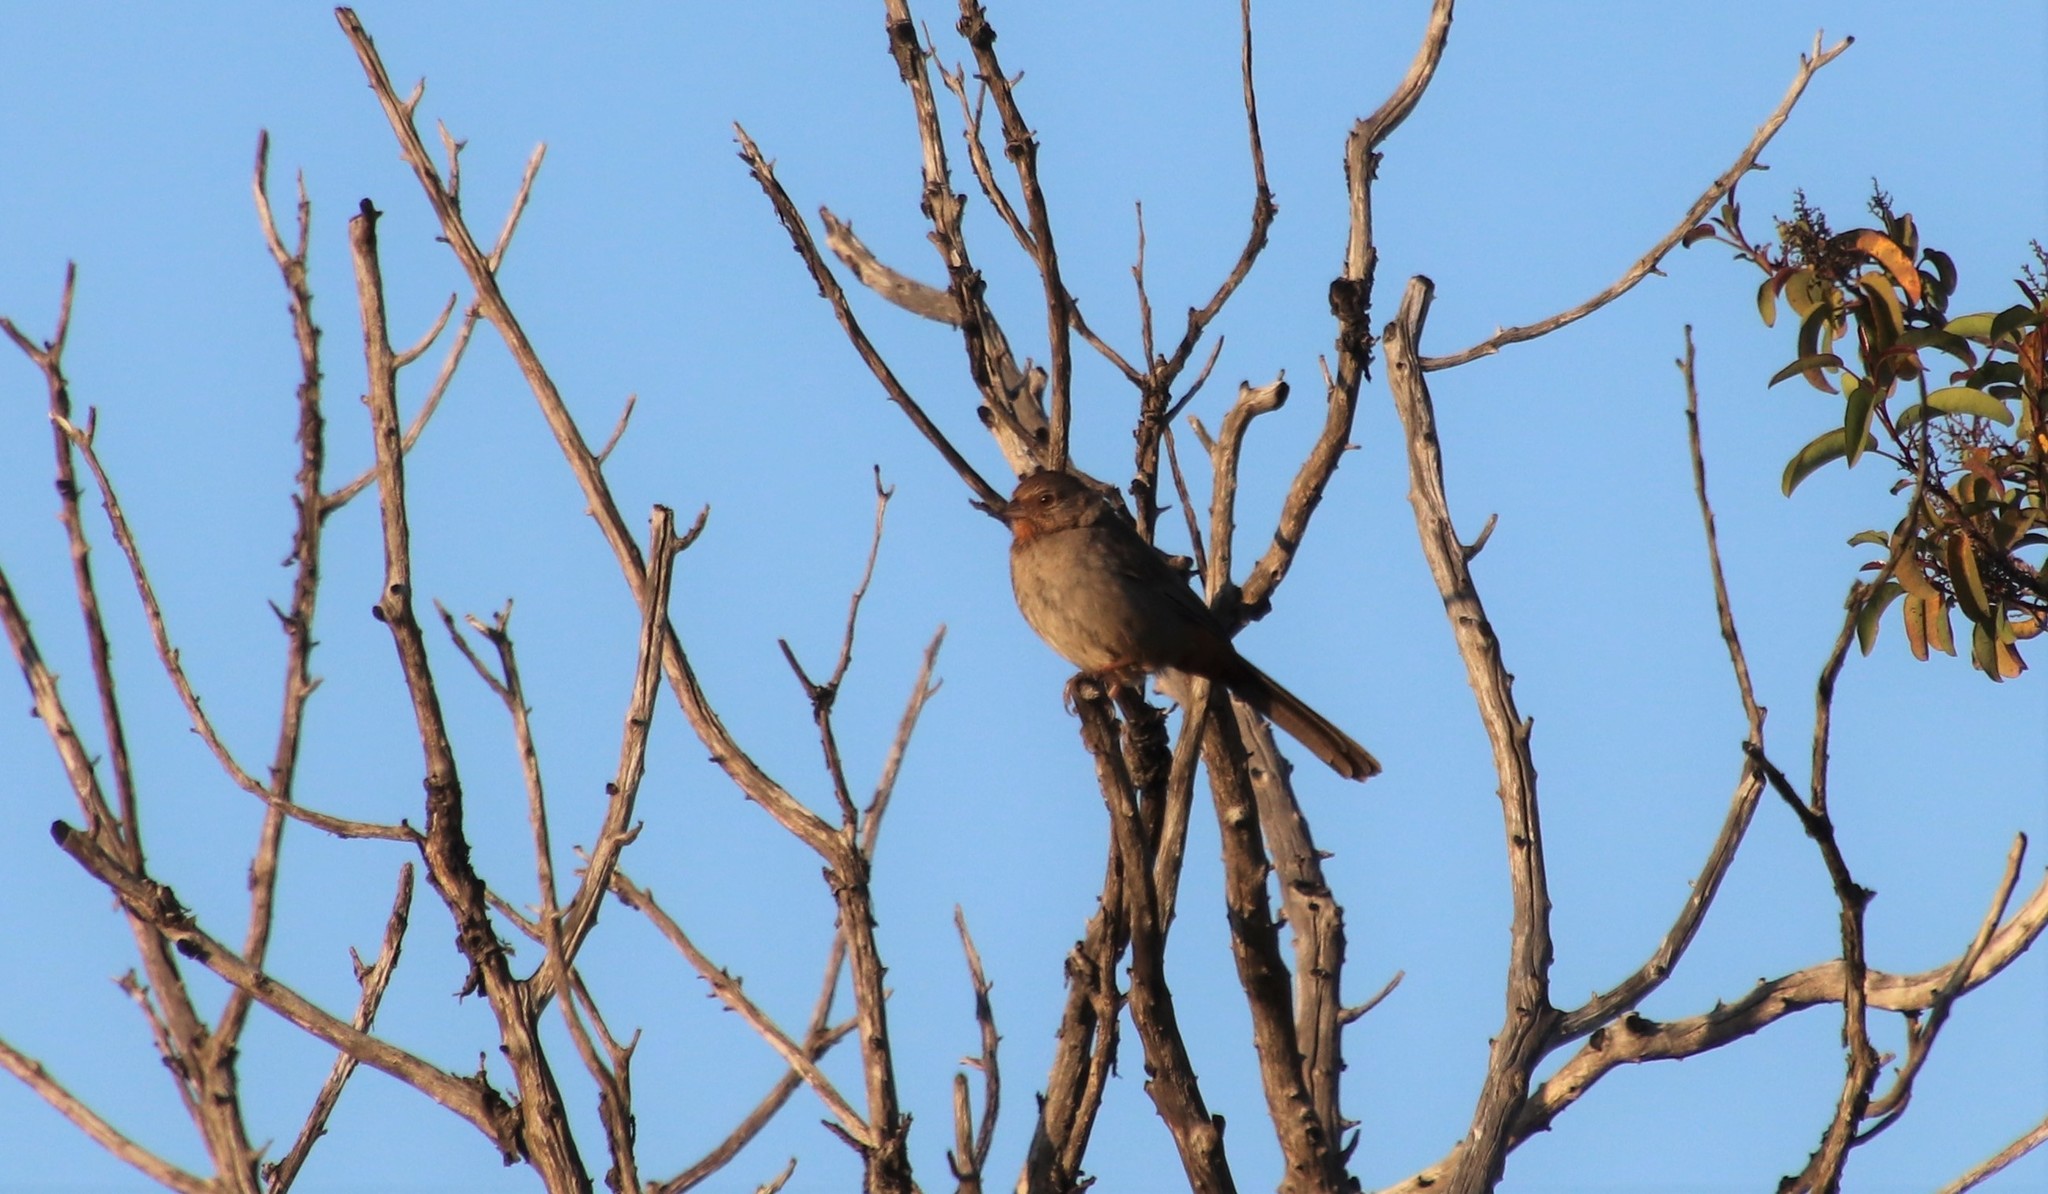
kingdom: Animalia
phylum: Chordata
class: Aves
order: Passeriformes
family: Passerellidae
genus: Melozone
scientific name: Melozone crissalis
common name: California towhee
